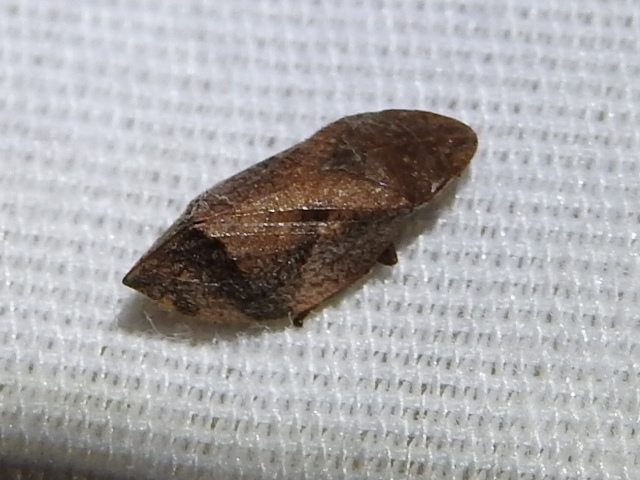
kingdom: Animalia
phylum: Arthropoda
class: Insecta
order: Hemiptera
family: Aphrophoridae
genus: Lepyronia
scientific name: Lepyronia quadrangularis
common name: Diamond-backed spittlebug
